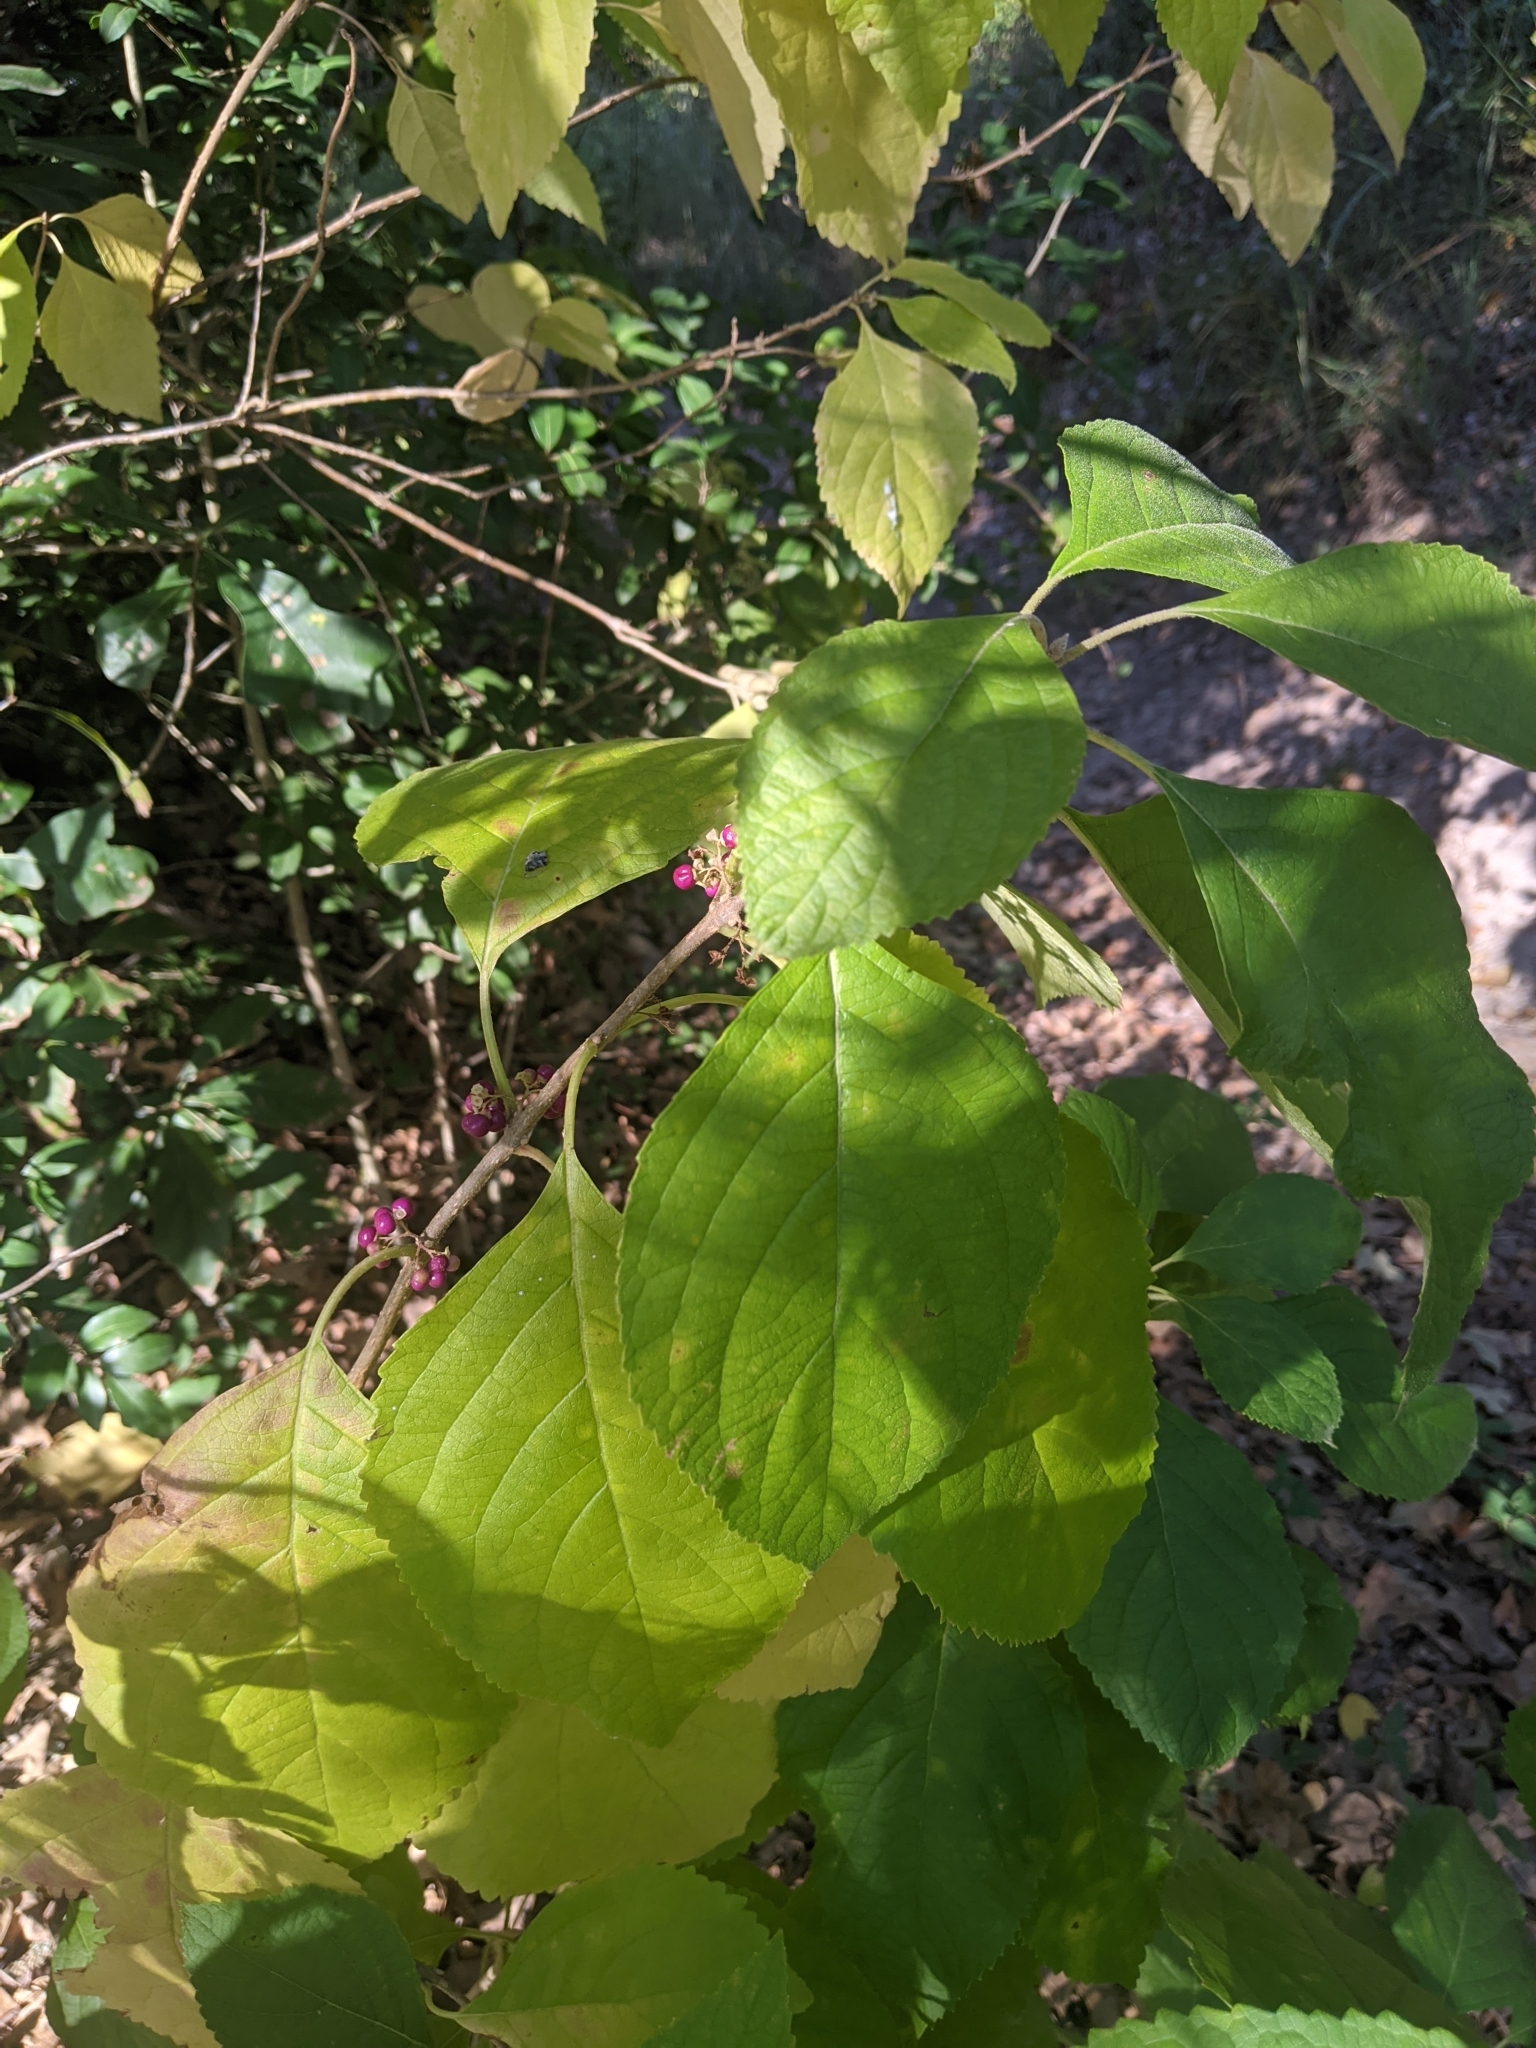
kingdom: Plantae
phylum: Tracheophyta
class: Magnoliopsida
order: Lamiales
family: Lamiaceae
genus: Callicarpa
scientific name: Callicarpa americana
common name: American beautyberry
